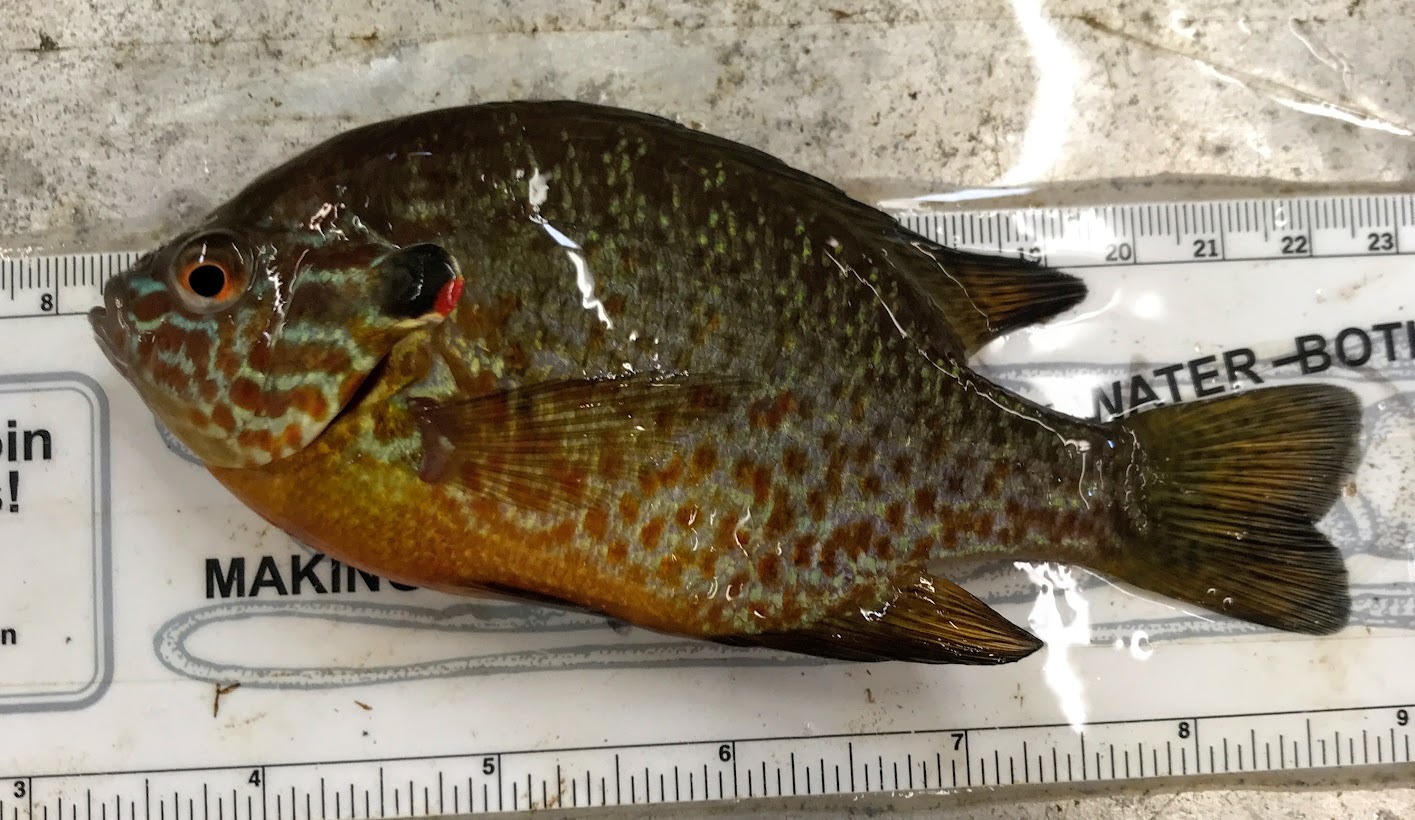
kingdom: Animalia
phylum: Chordata
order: Perciformes
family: Centrarchidae
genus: Lepomis
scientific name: Lepomis gibbosus
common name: Pumpkinseed
